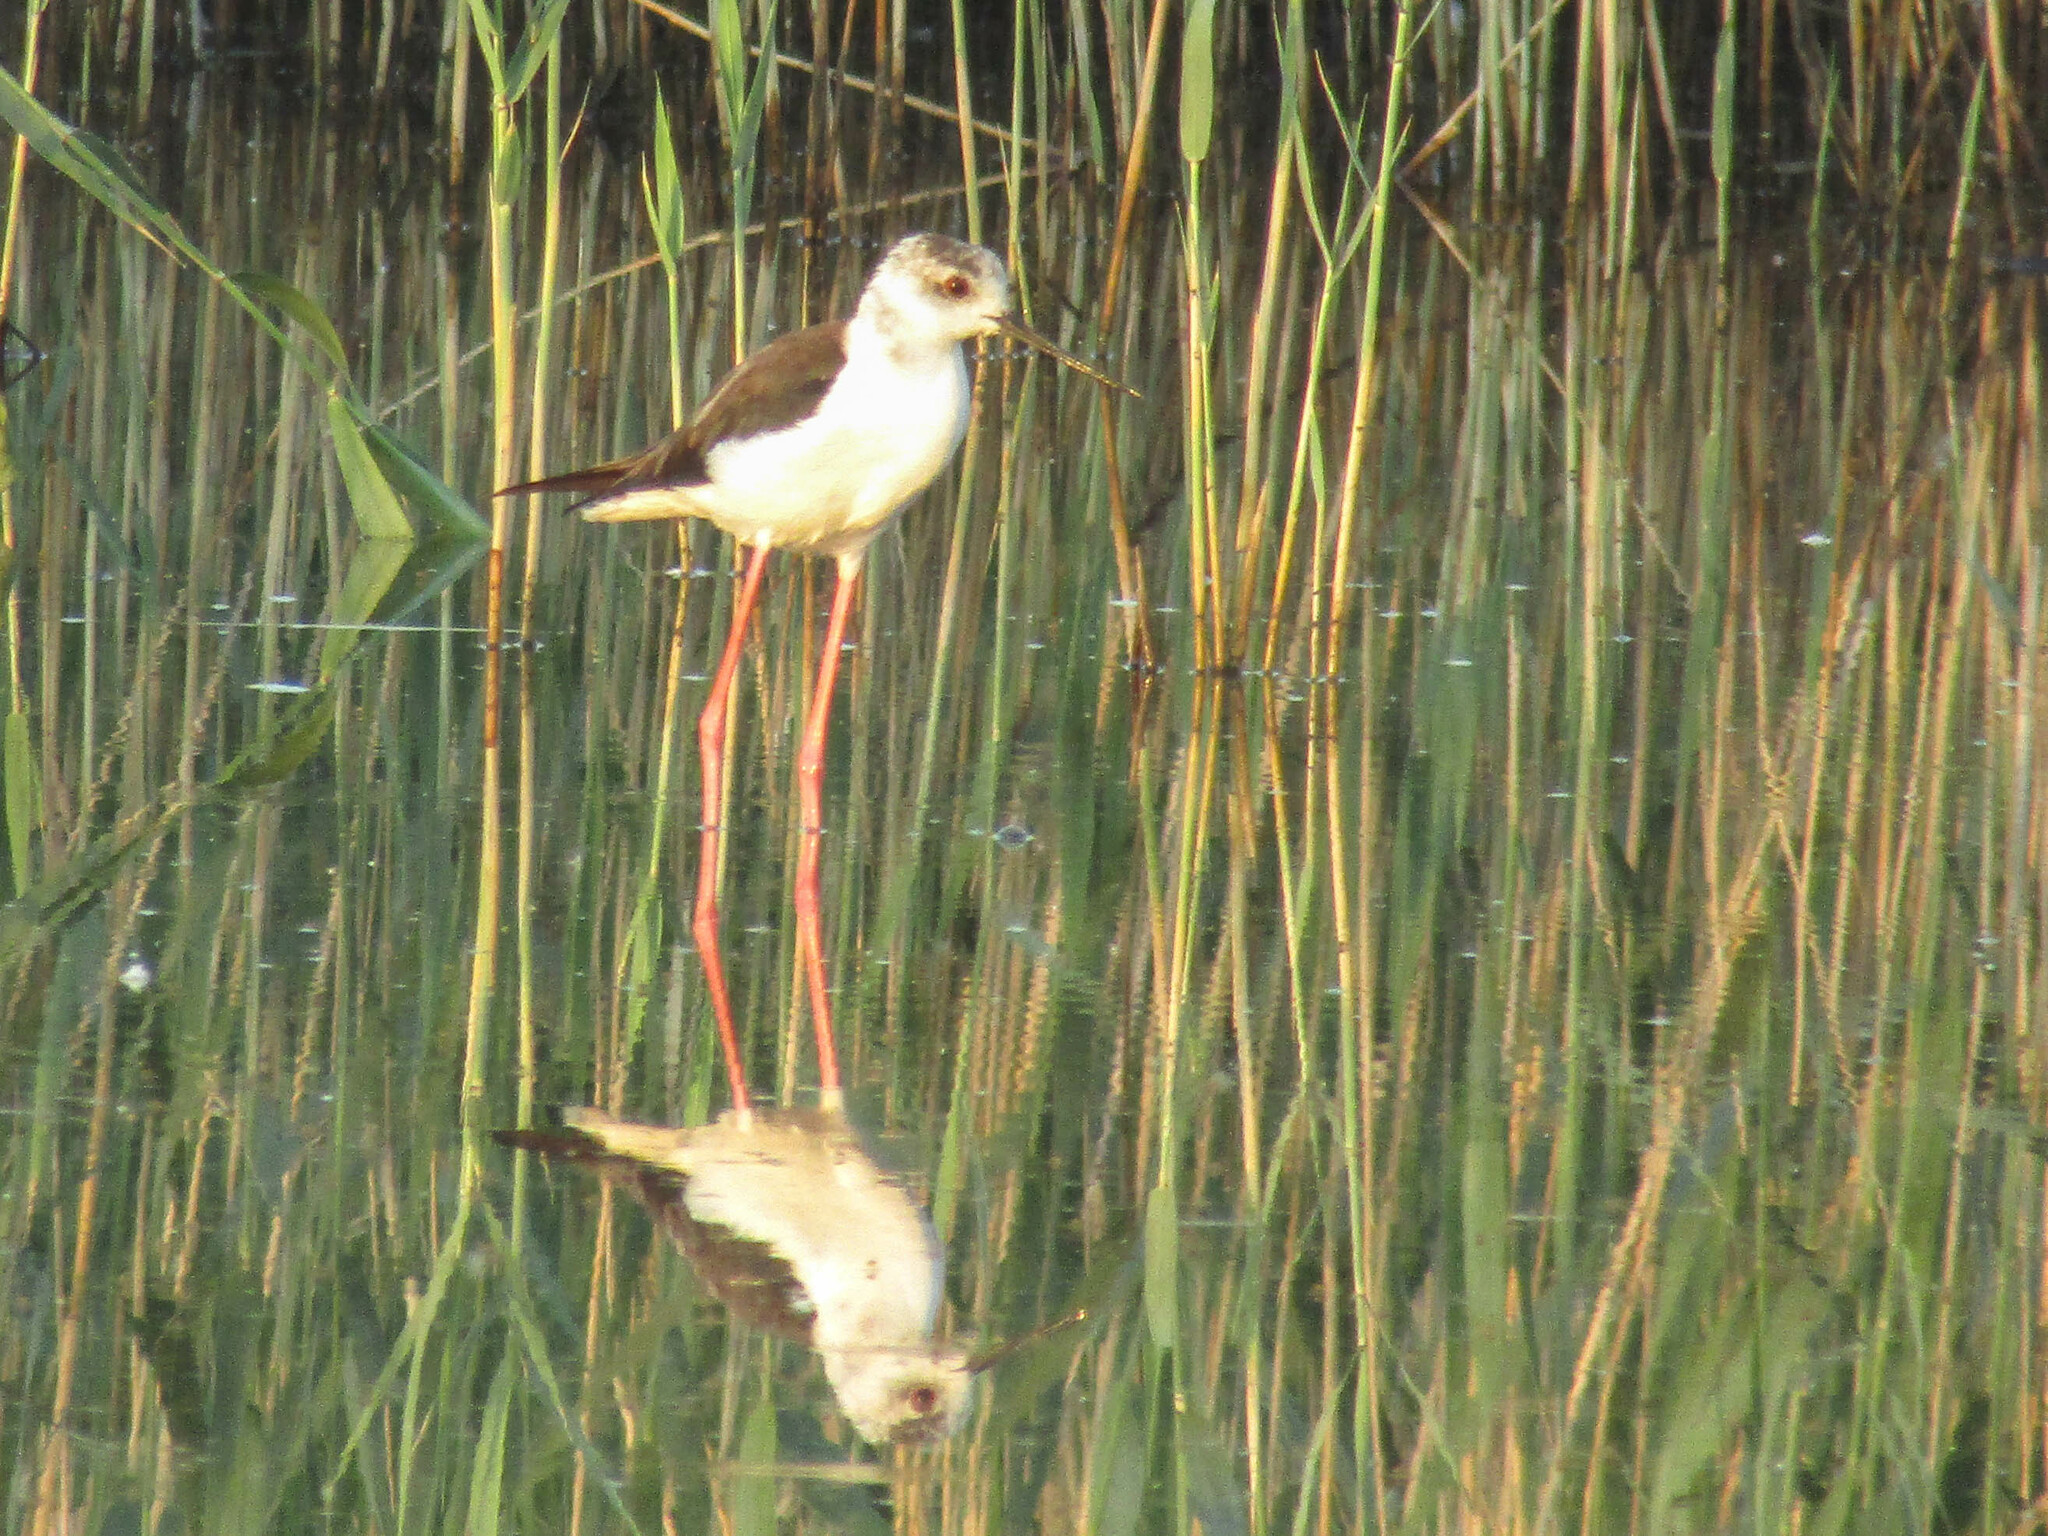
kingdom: Animalia
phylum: Chordata
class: Aves
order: Charadriiformes
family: Recurvirostridae
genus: Himantopus
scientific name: Himantopus himantopus
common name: Black-winged stilt
